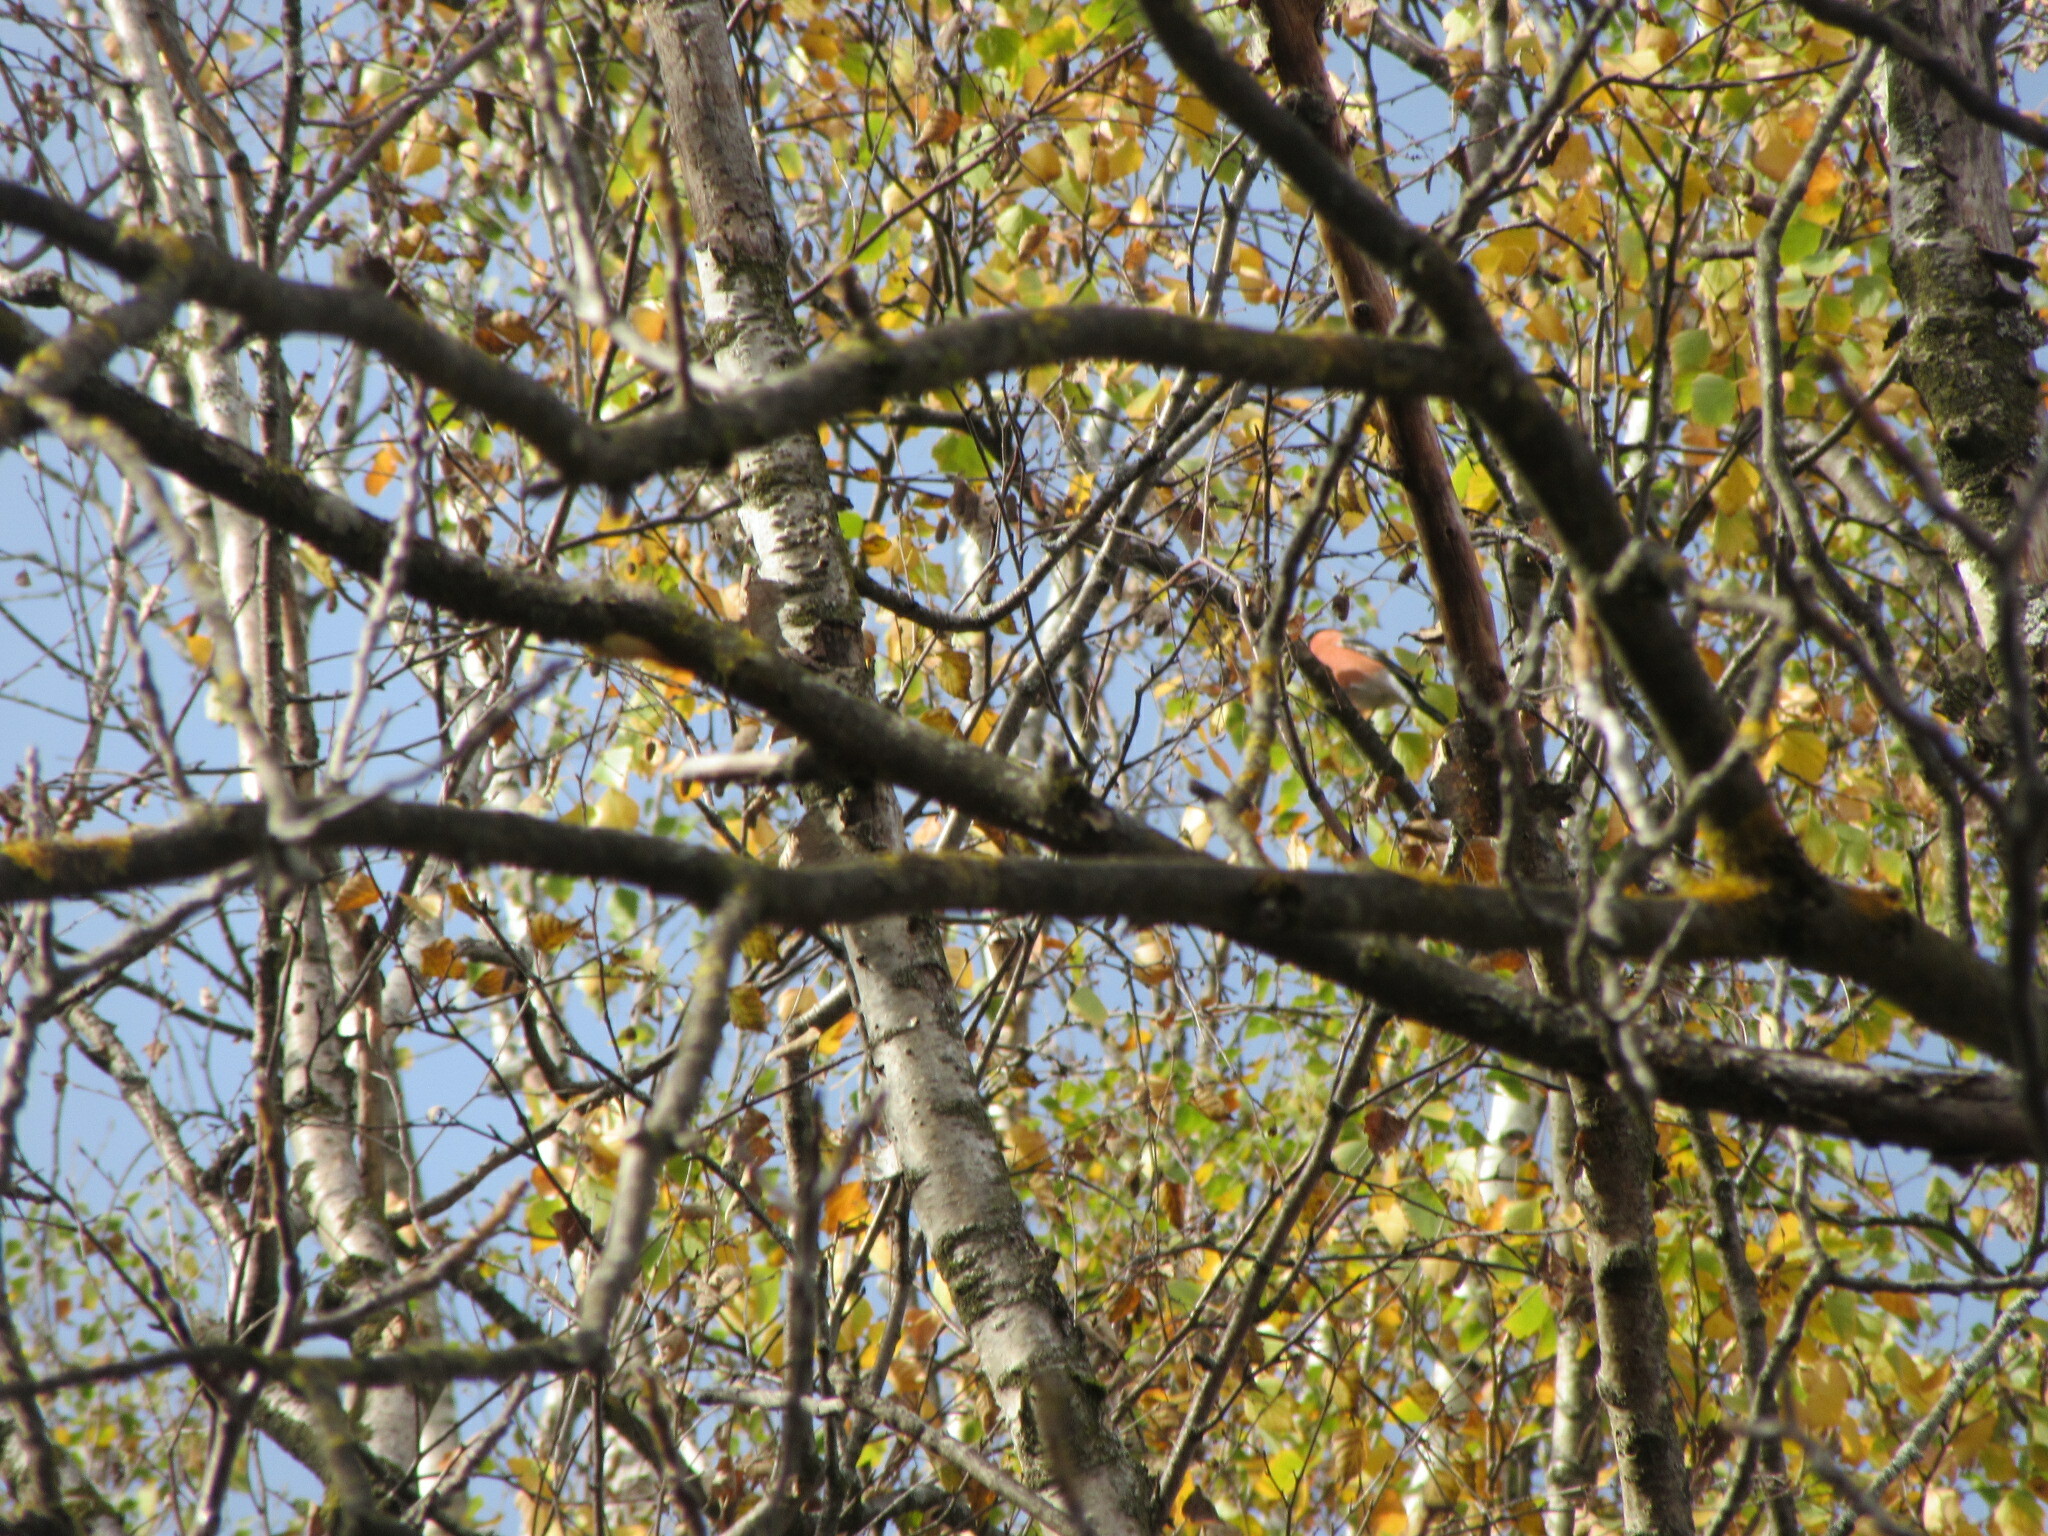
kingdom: Animalia
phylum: Chordata
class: Aves
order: Passeriformes
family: Fringillidae
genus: Pyrrhula
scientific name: Pyrrhula pyrrhula
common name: Eurasian bullfinch
